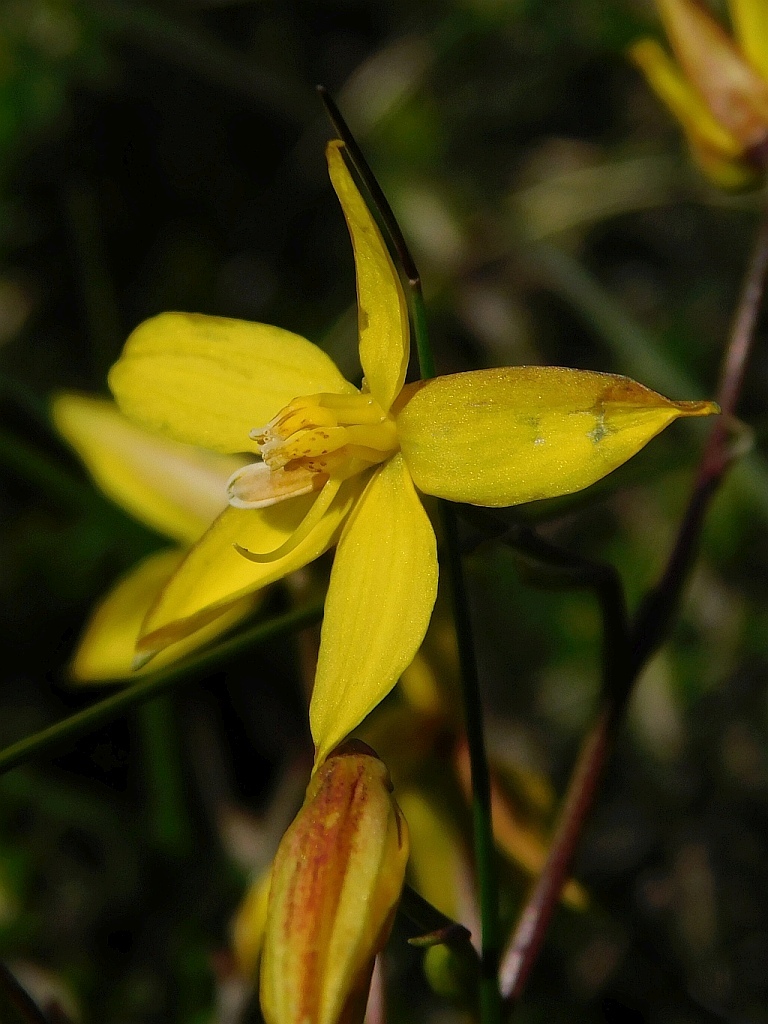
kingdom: Plantae
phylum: Tracheophyta
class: Liliopsida
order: Asparagales
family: Tecophilaeaceae
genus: Cyanella
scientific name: Cyanella lutea
